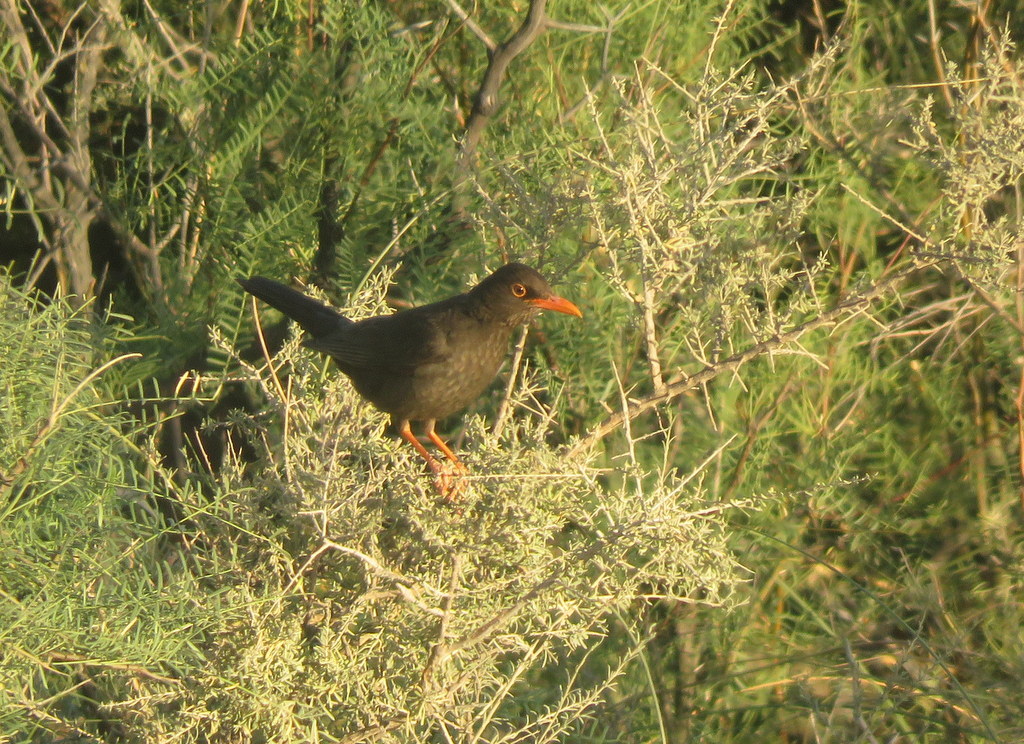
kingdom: Animalia
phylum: Chordata
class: Aves
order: Passeriformes
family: Turdidae
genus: Turdus
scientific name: Turdus chiguanco
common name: Chiguanco thrush
